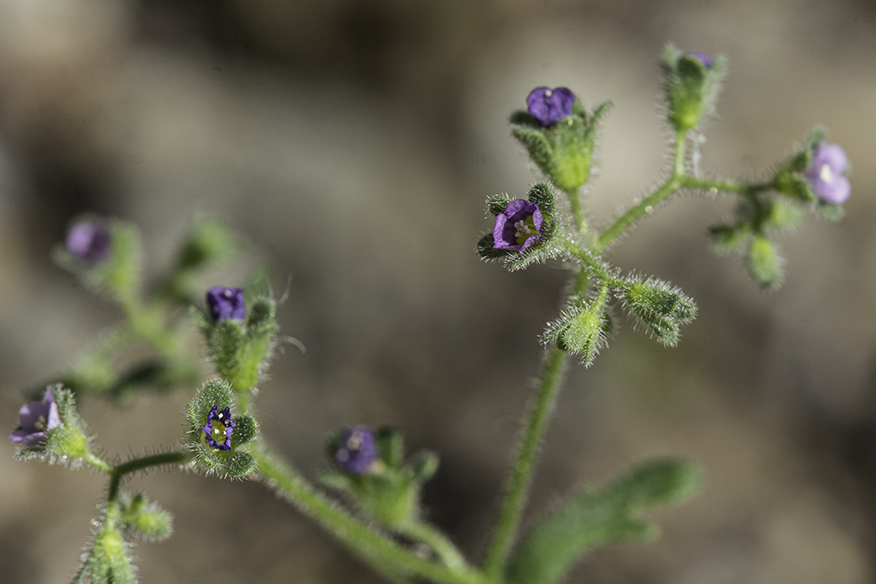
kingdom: Plantae
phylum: Tracheophyta
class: Magnoliopsida
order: Boraginales
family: Hydrophyllaceae
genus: Eucrypta
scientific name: Eucrypta micrantha
